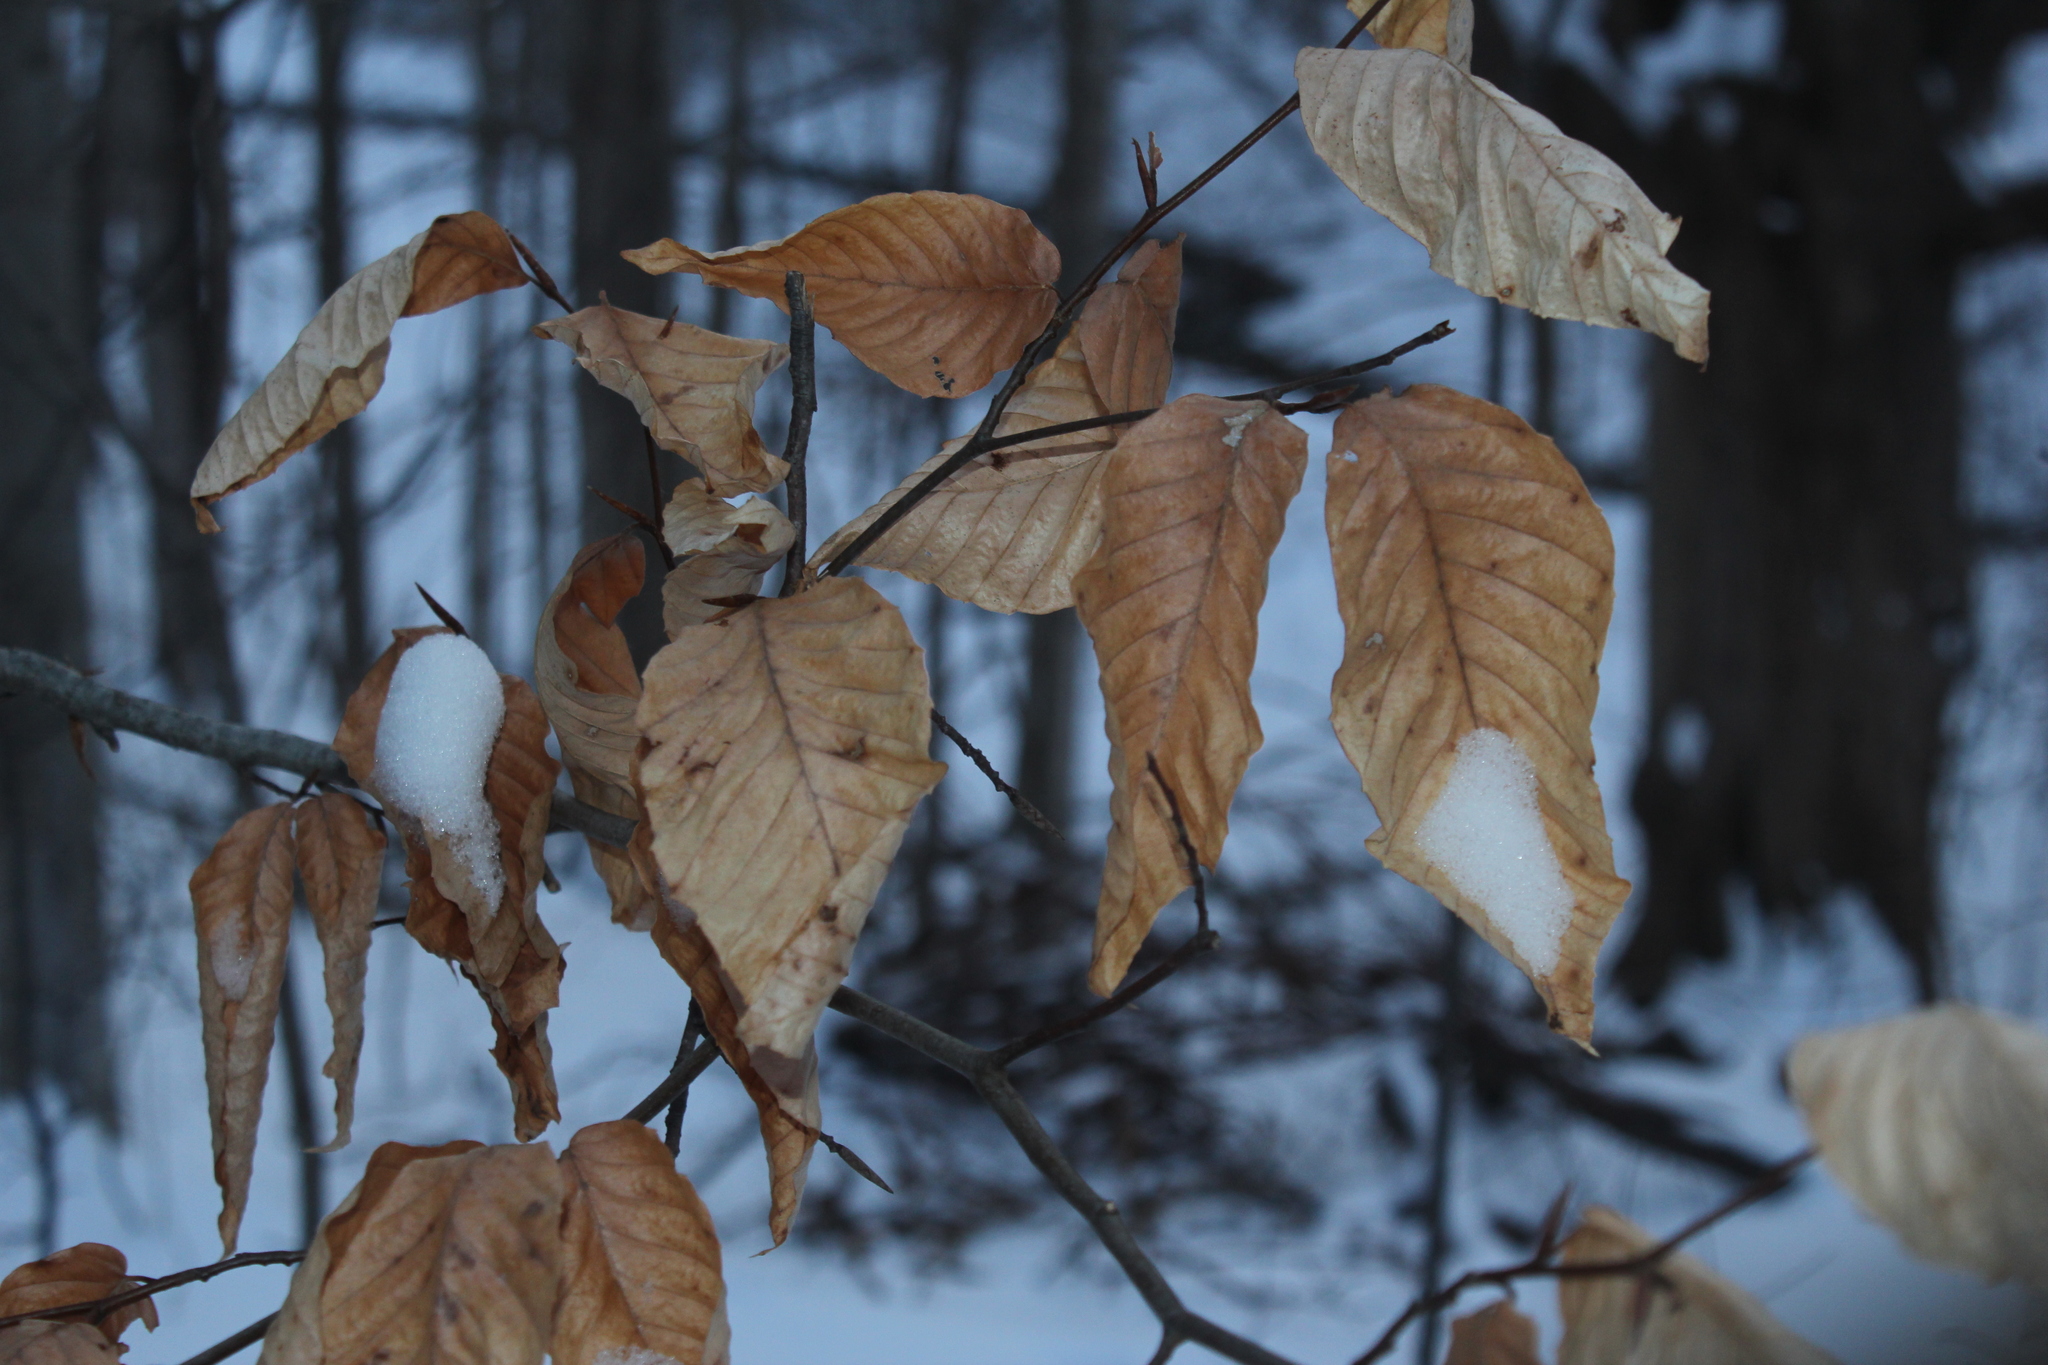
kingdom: Plantae
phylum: Tracheophyta
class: Magnoliopsida
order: Fagales
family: Fagaceae
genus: Fagus
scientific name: Fagus grandifolia
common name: American beech
